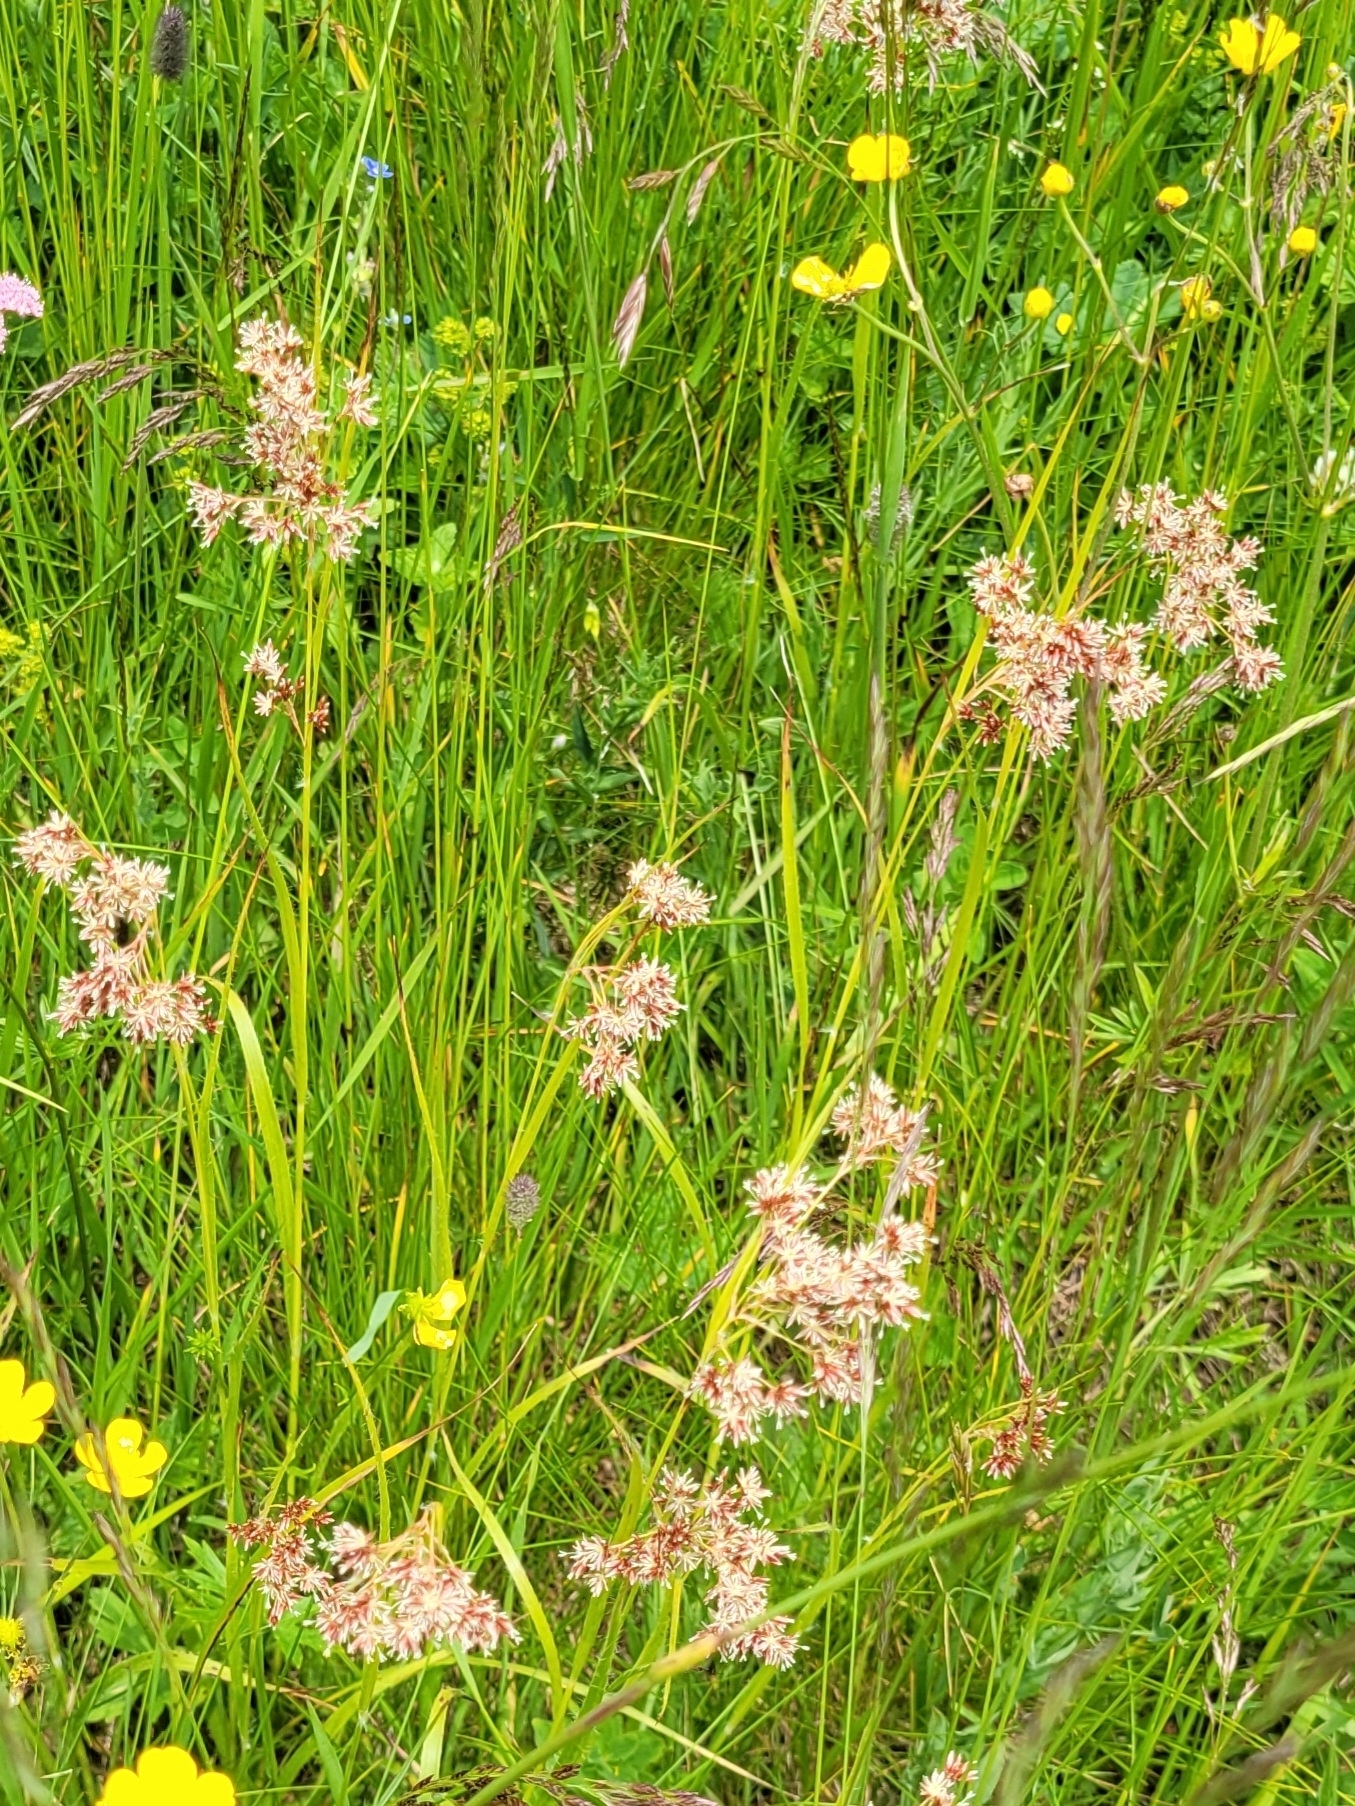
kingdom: Plantae
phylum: Tracheophyta
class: Liliopsida
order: Poales
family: Juncaceae
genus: Luzula
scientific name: Luzula luzuloides
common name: White wood-rush
